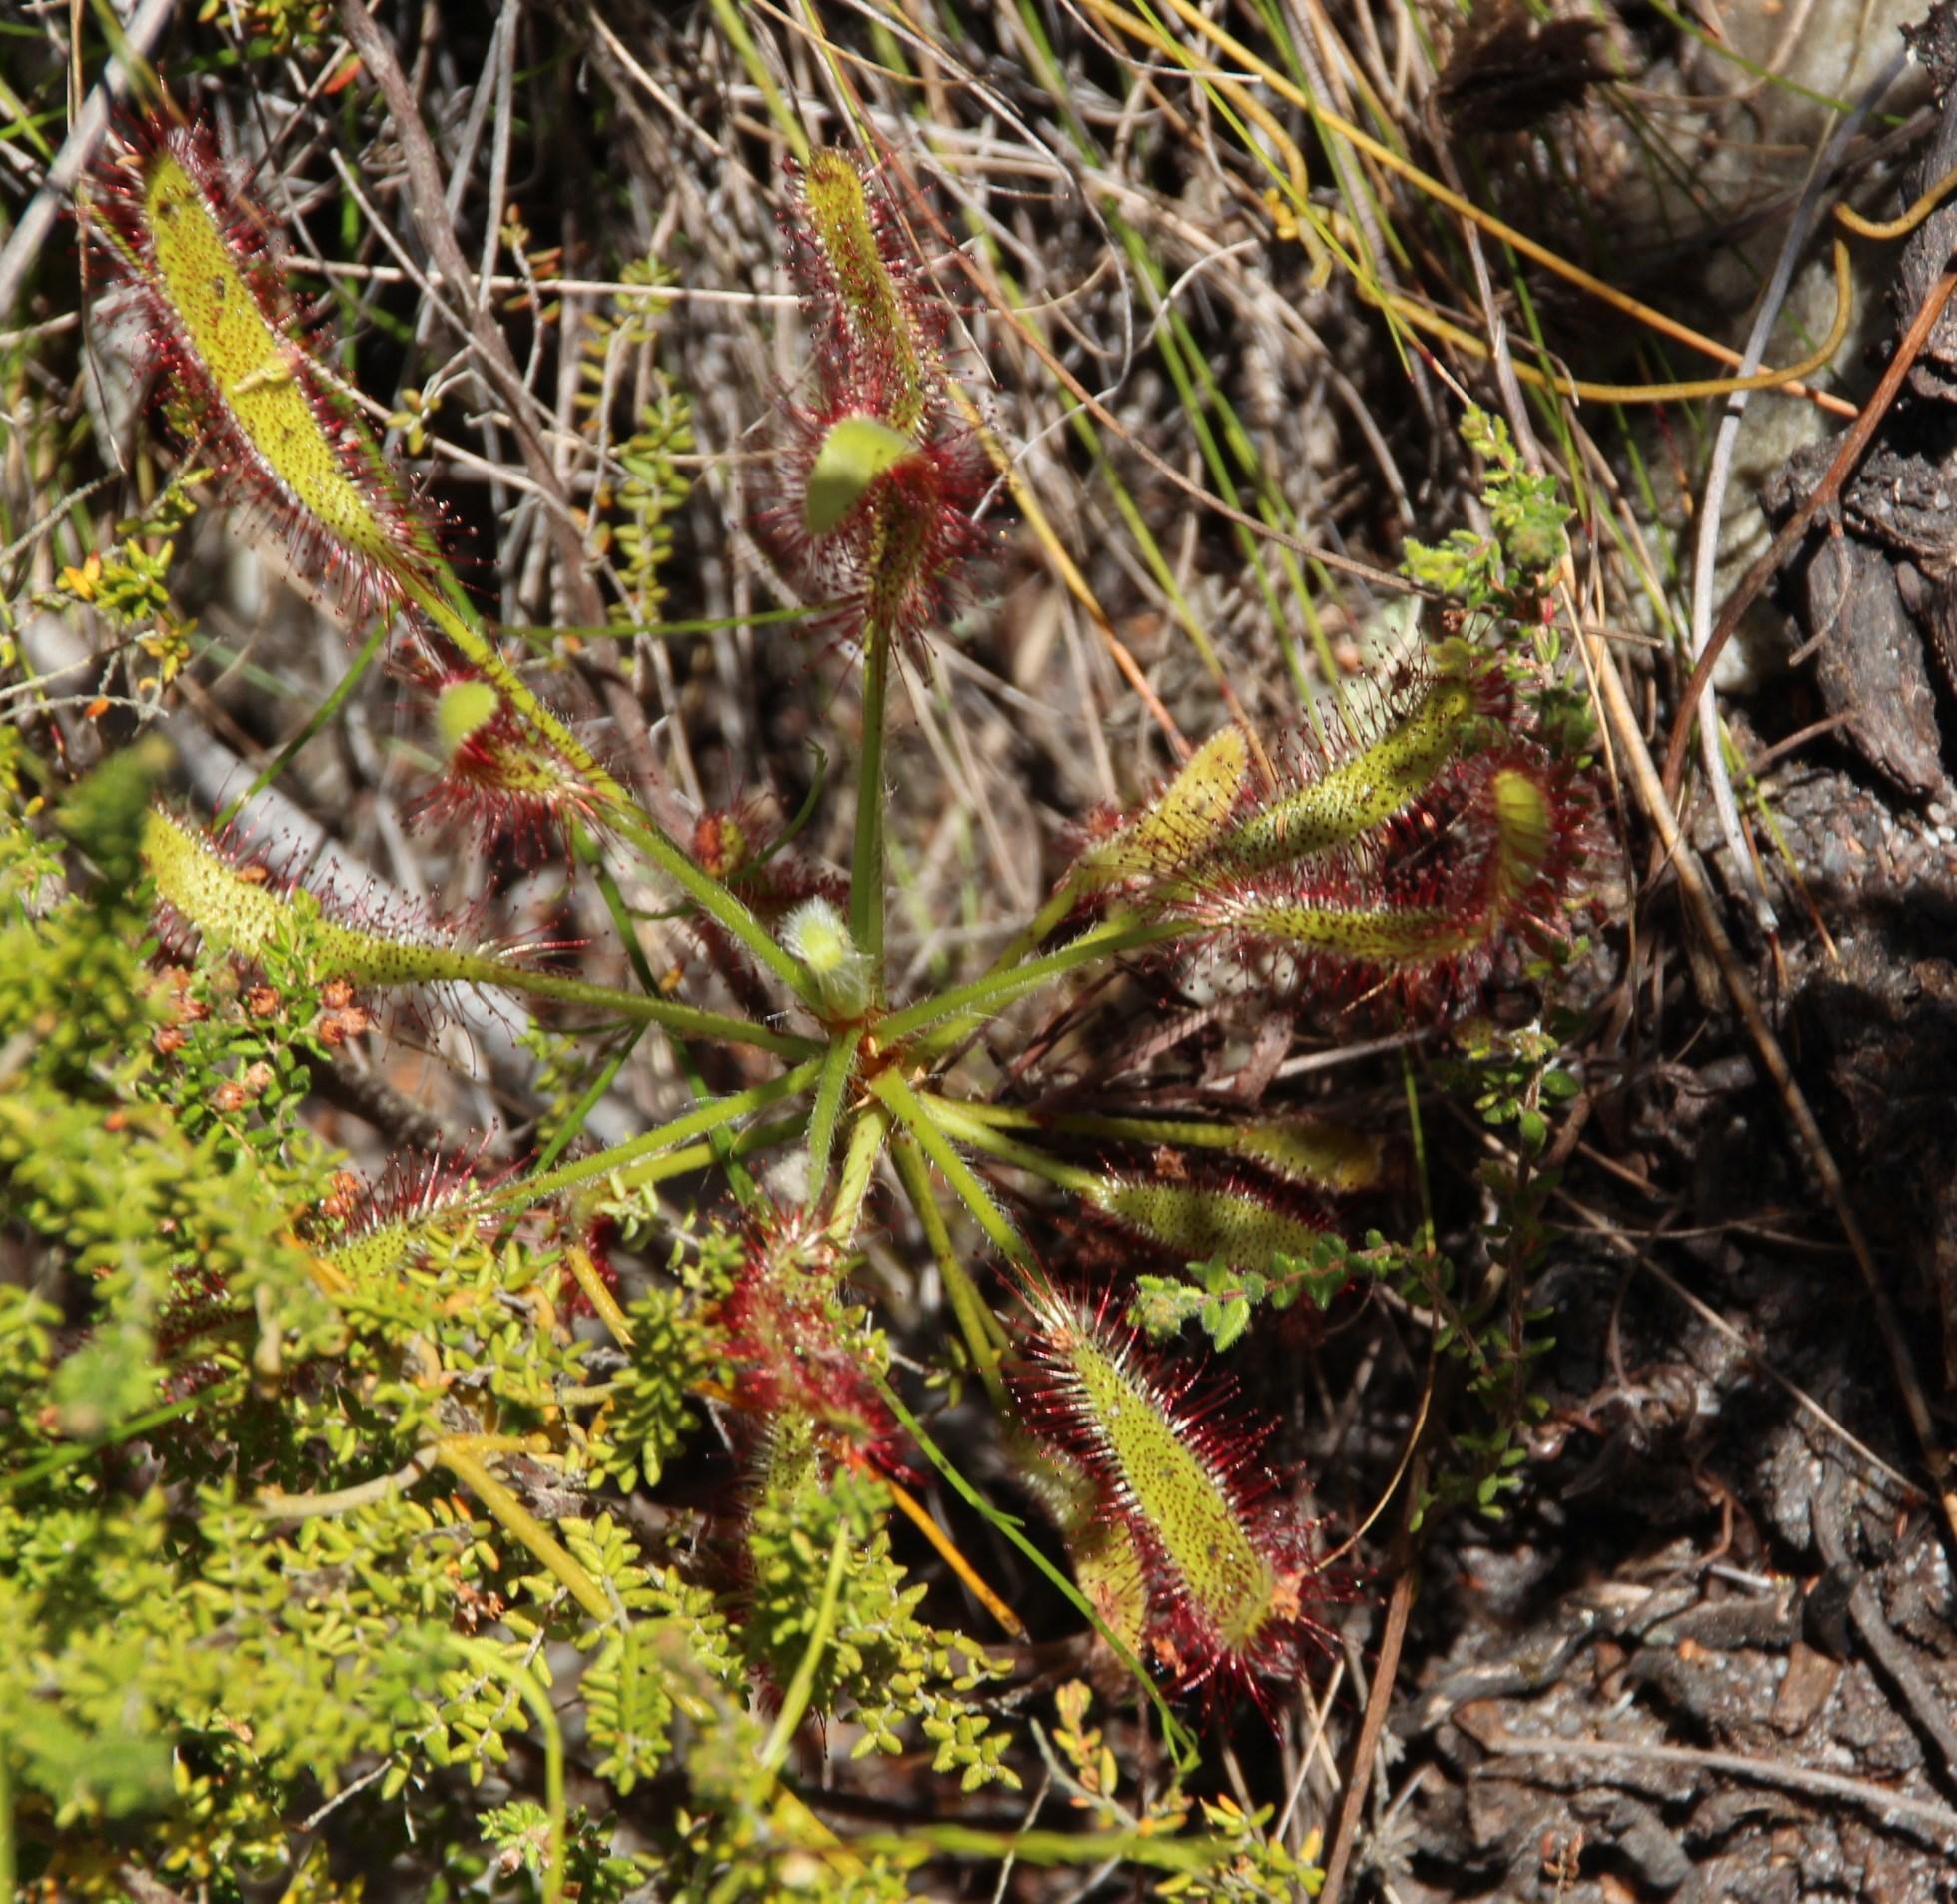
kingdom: Plantae
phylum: Tracheophyta
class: Magnoliopsida
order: Caryophyllales
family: Droseraceae
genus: Drosera
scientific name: Drosera ramentacea
